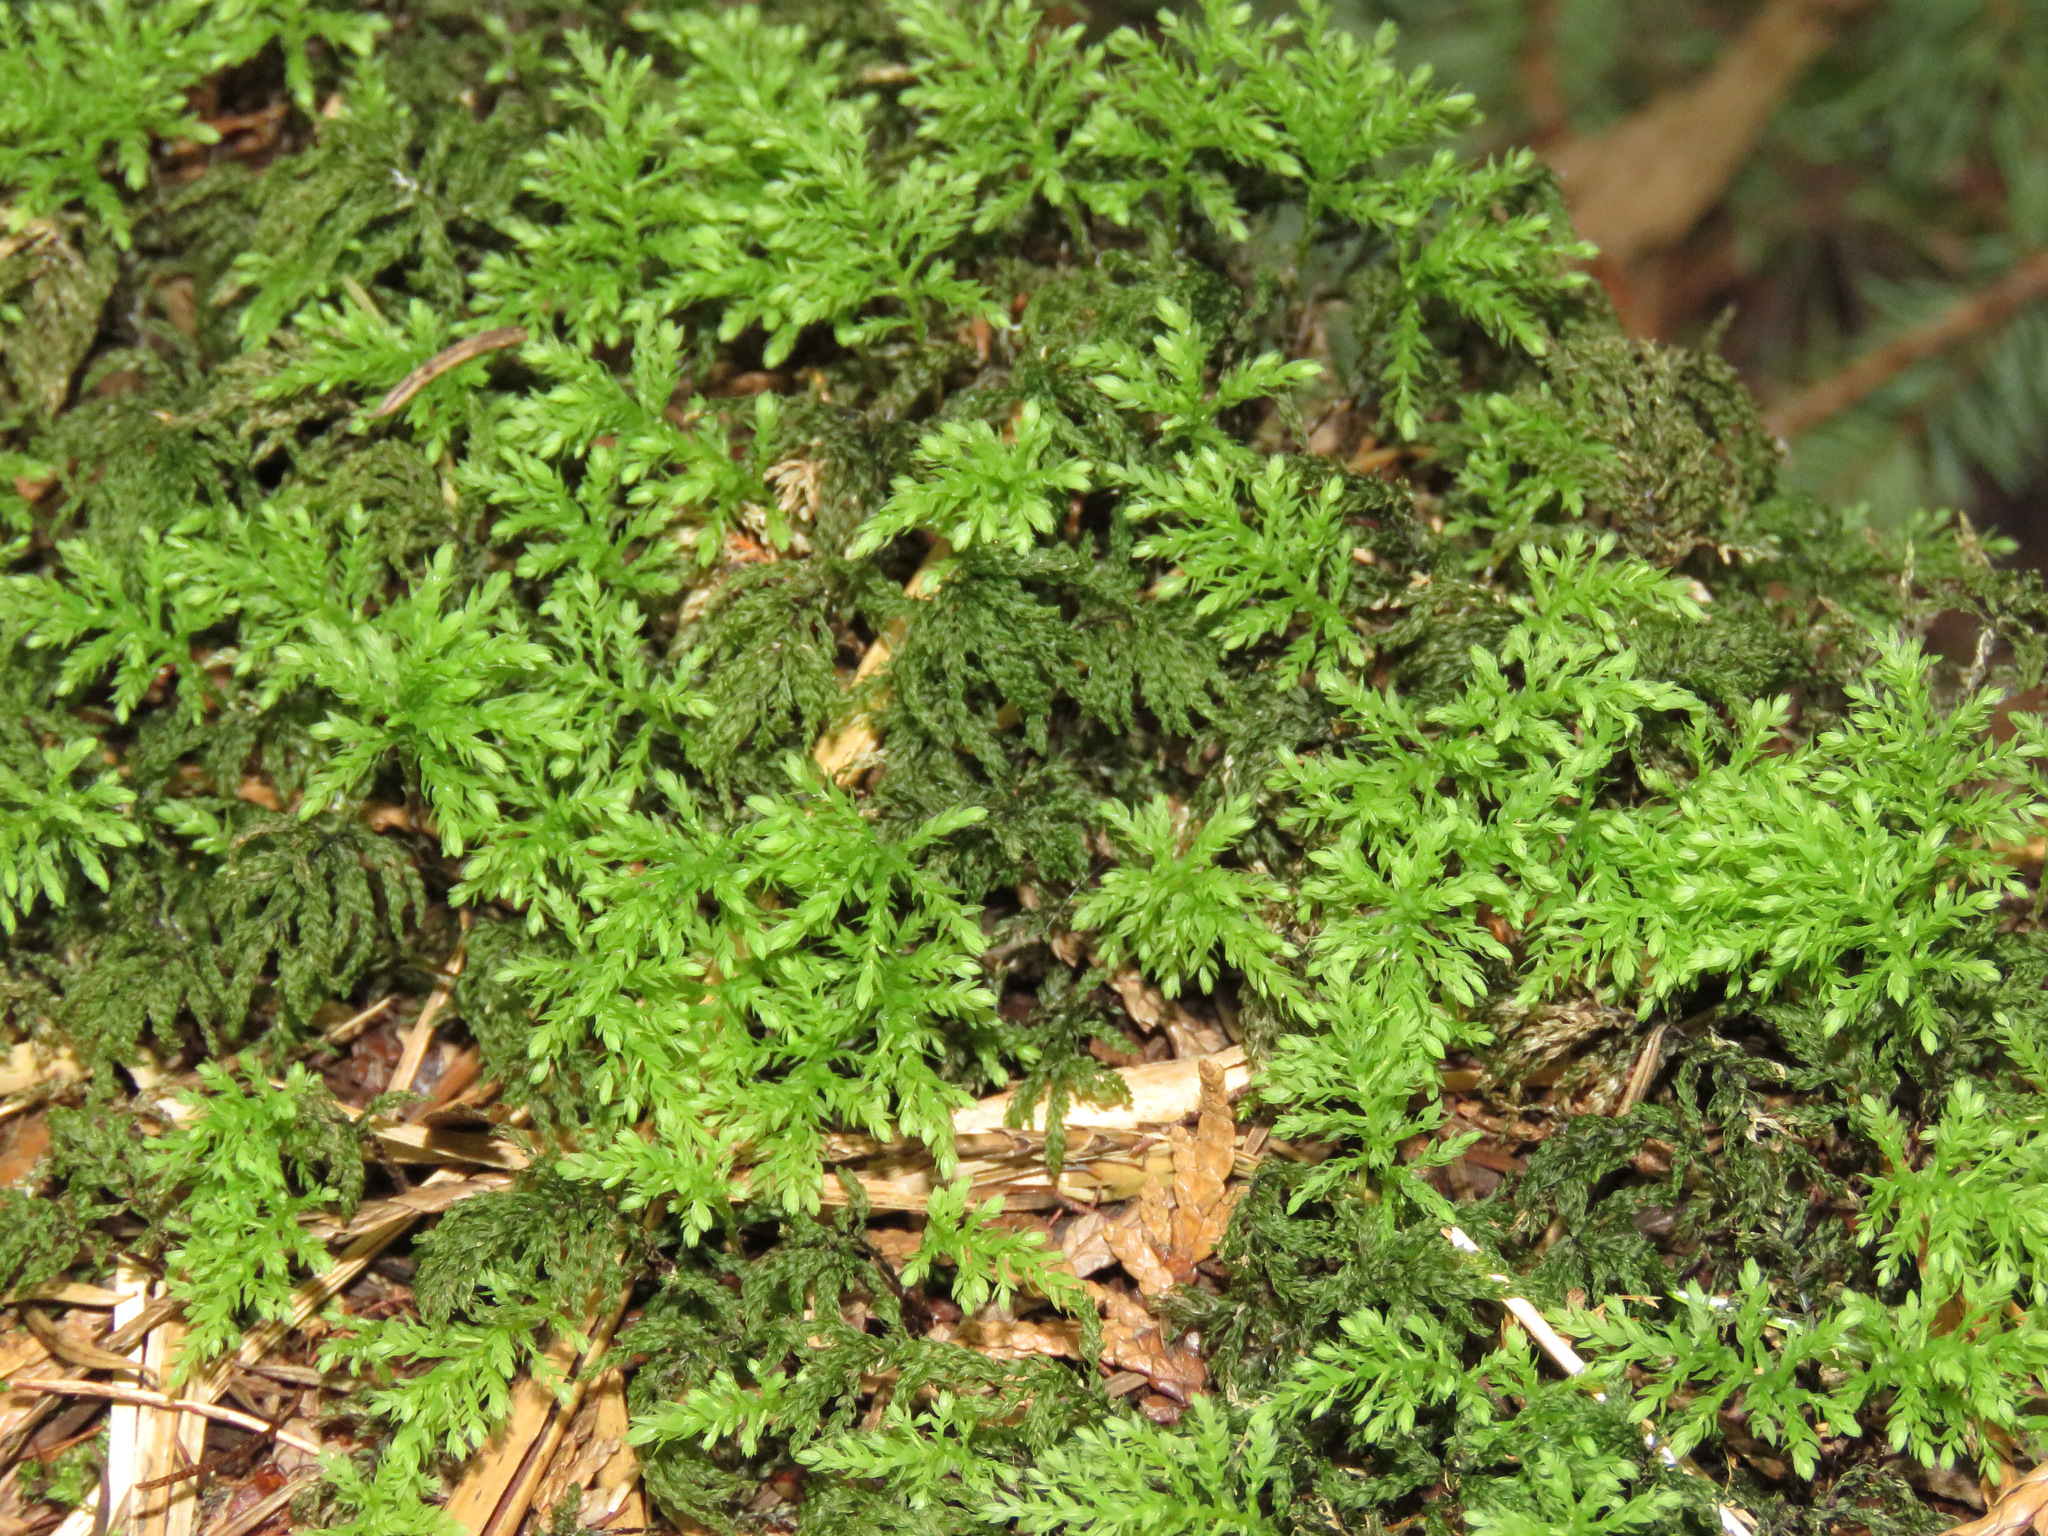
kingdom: Plantae
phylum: Bryophyta
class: Bryopsida
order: Bryales
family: Mniaceae
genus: Leucolepis
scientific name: Leucolepis acanthoneura
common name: Leucolepis umbrella moss
